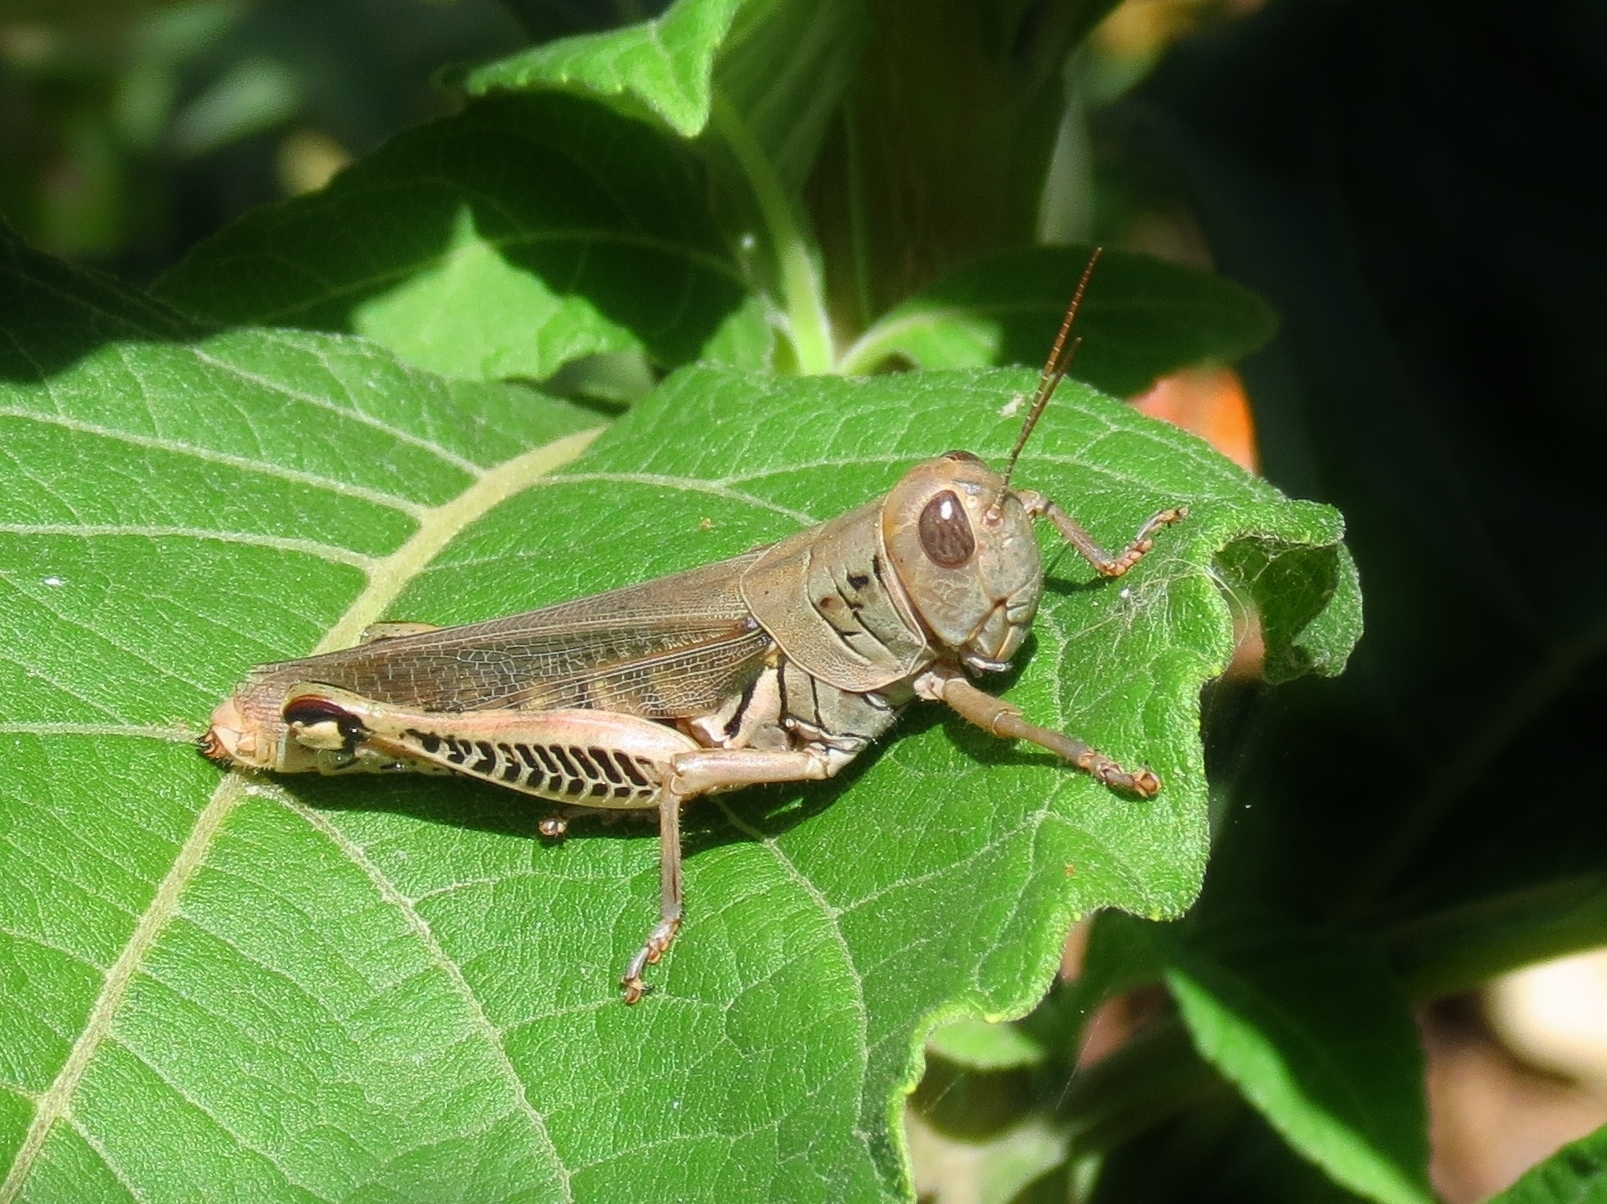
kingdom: Animalia
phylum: Arthropoda
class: Insecta
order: Orthoptera
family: Acrididae
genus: Melanoplus
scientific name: Melanoplus differentialis
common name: Differential grasshopper
